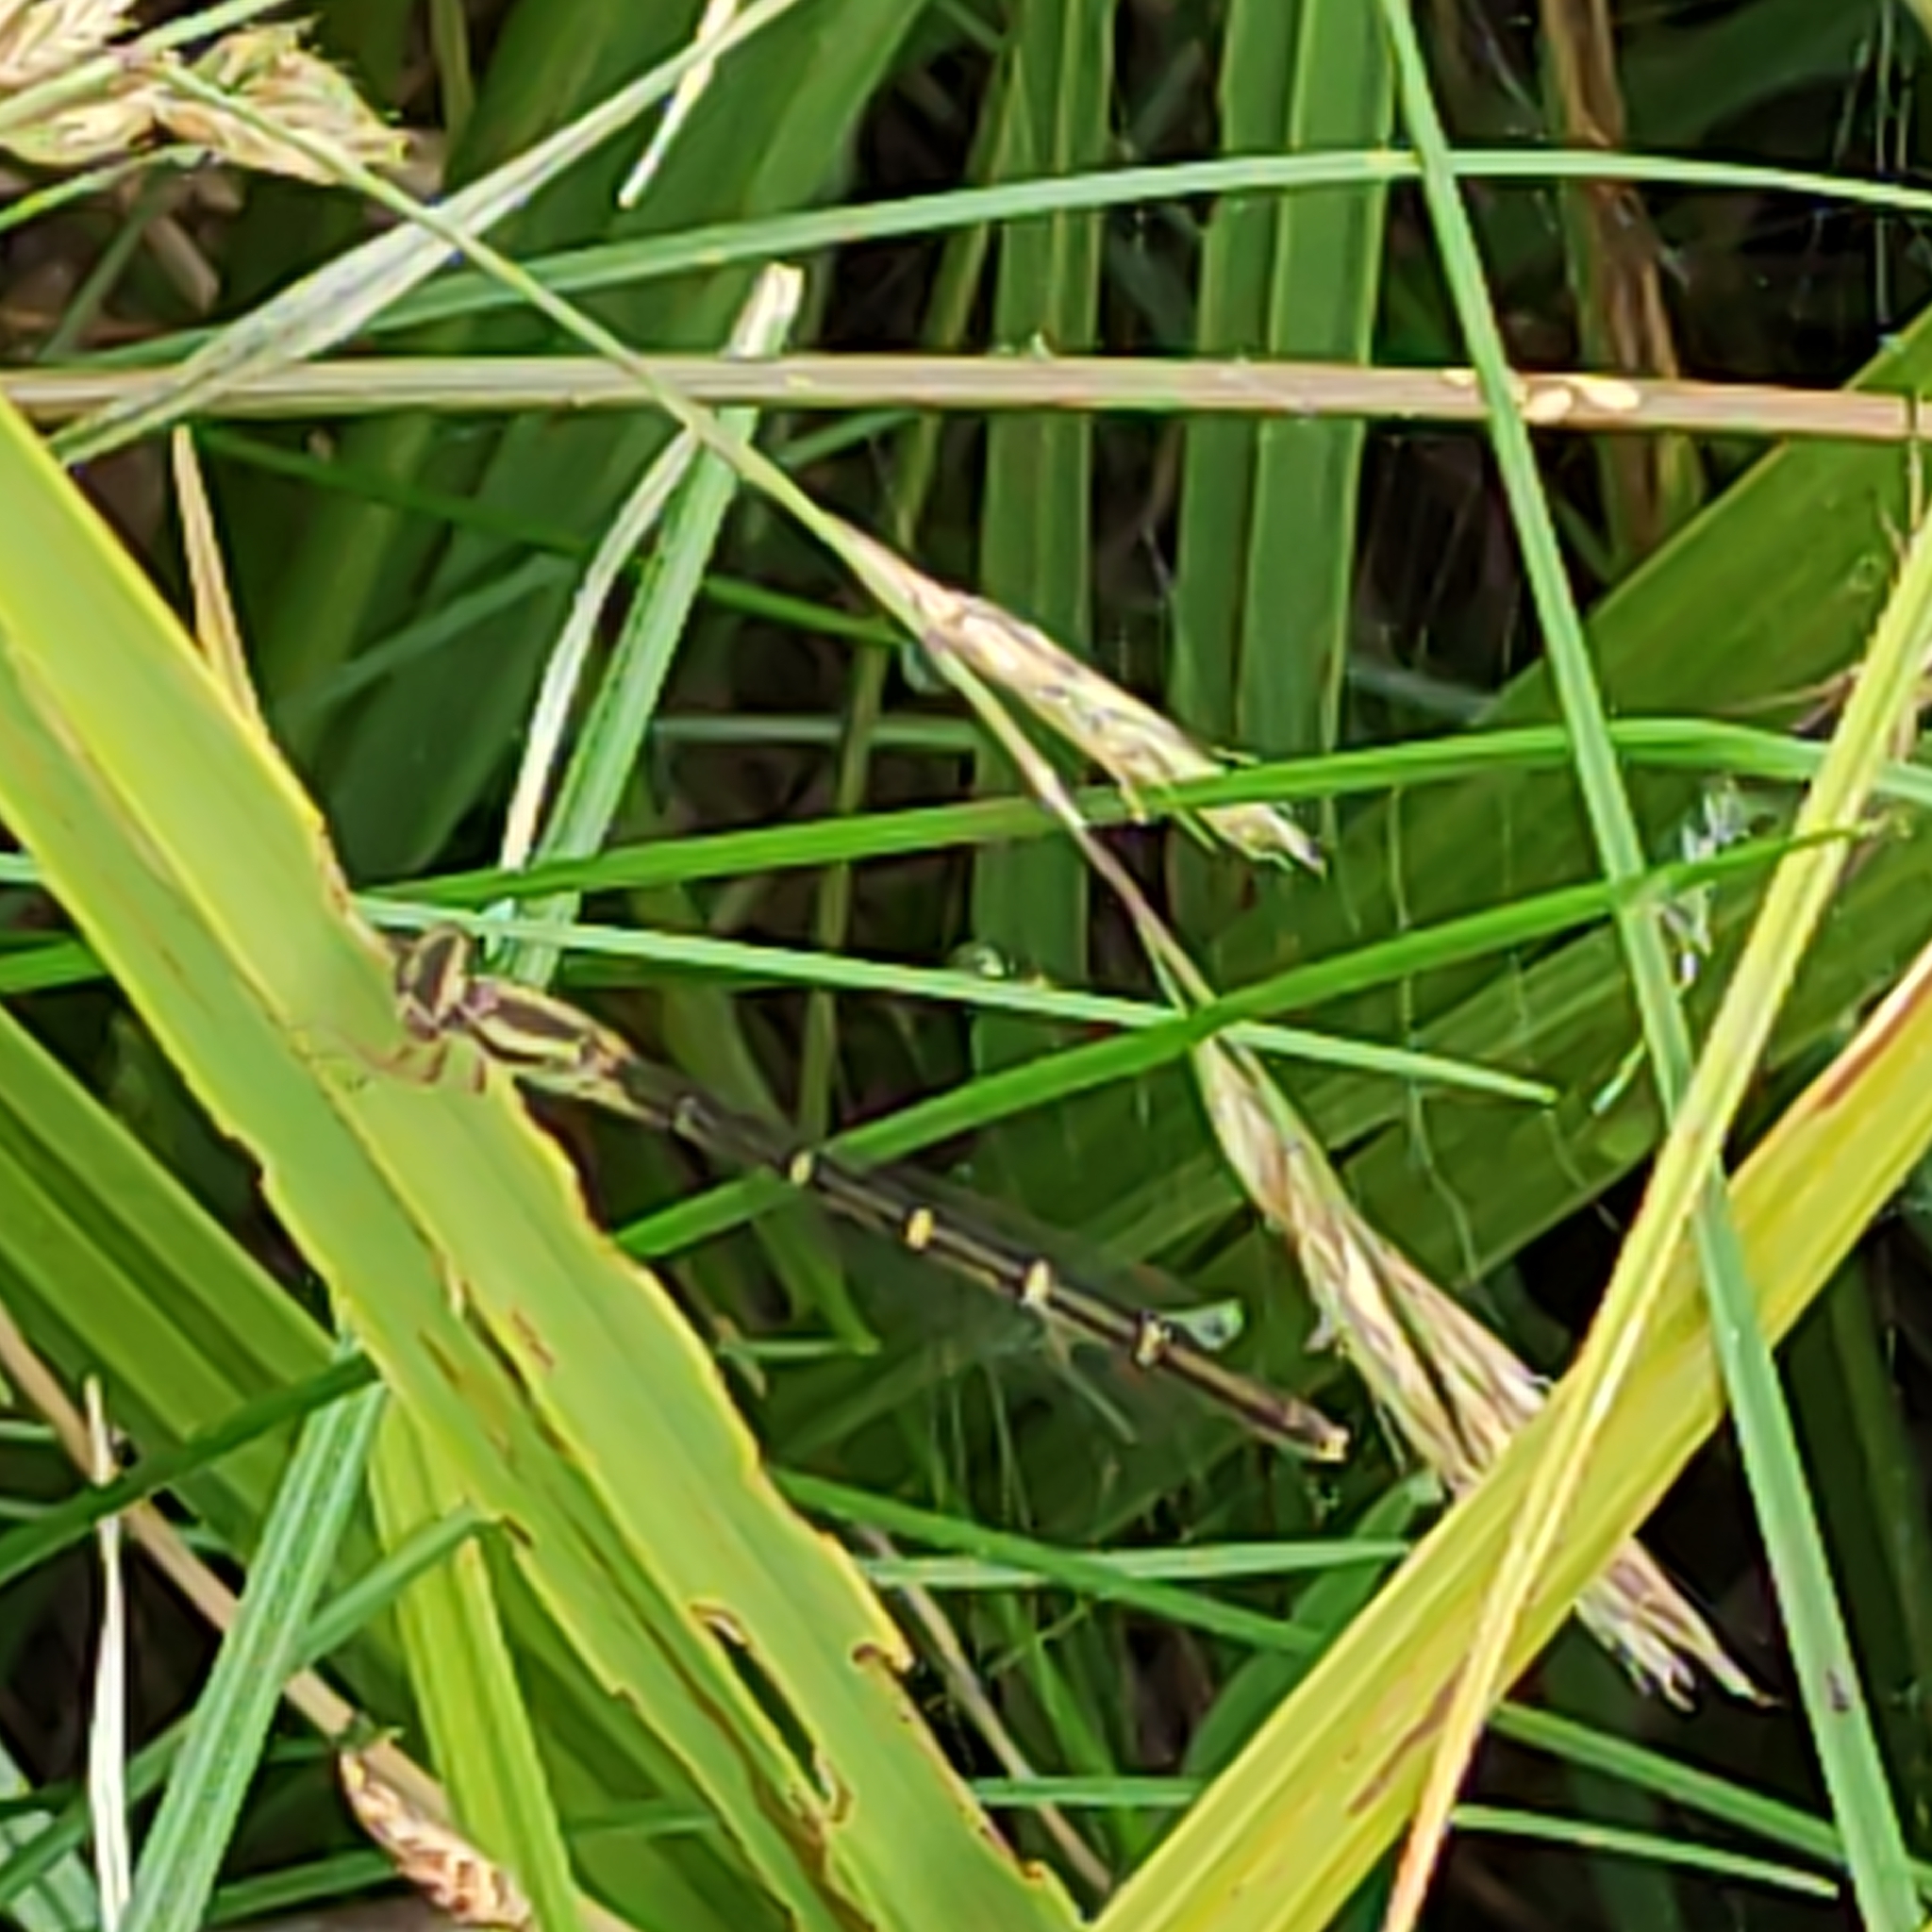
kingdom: Animalia
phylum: Arthropoda
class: Insecta
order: Odonata
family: Coenagrionidae
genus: Xanthocnemis
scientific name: Xanthocnemis zealandica
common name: Common redcoat damselfly
